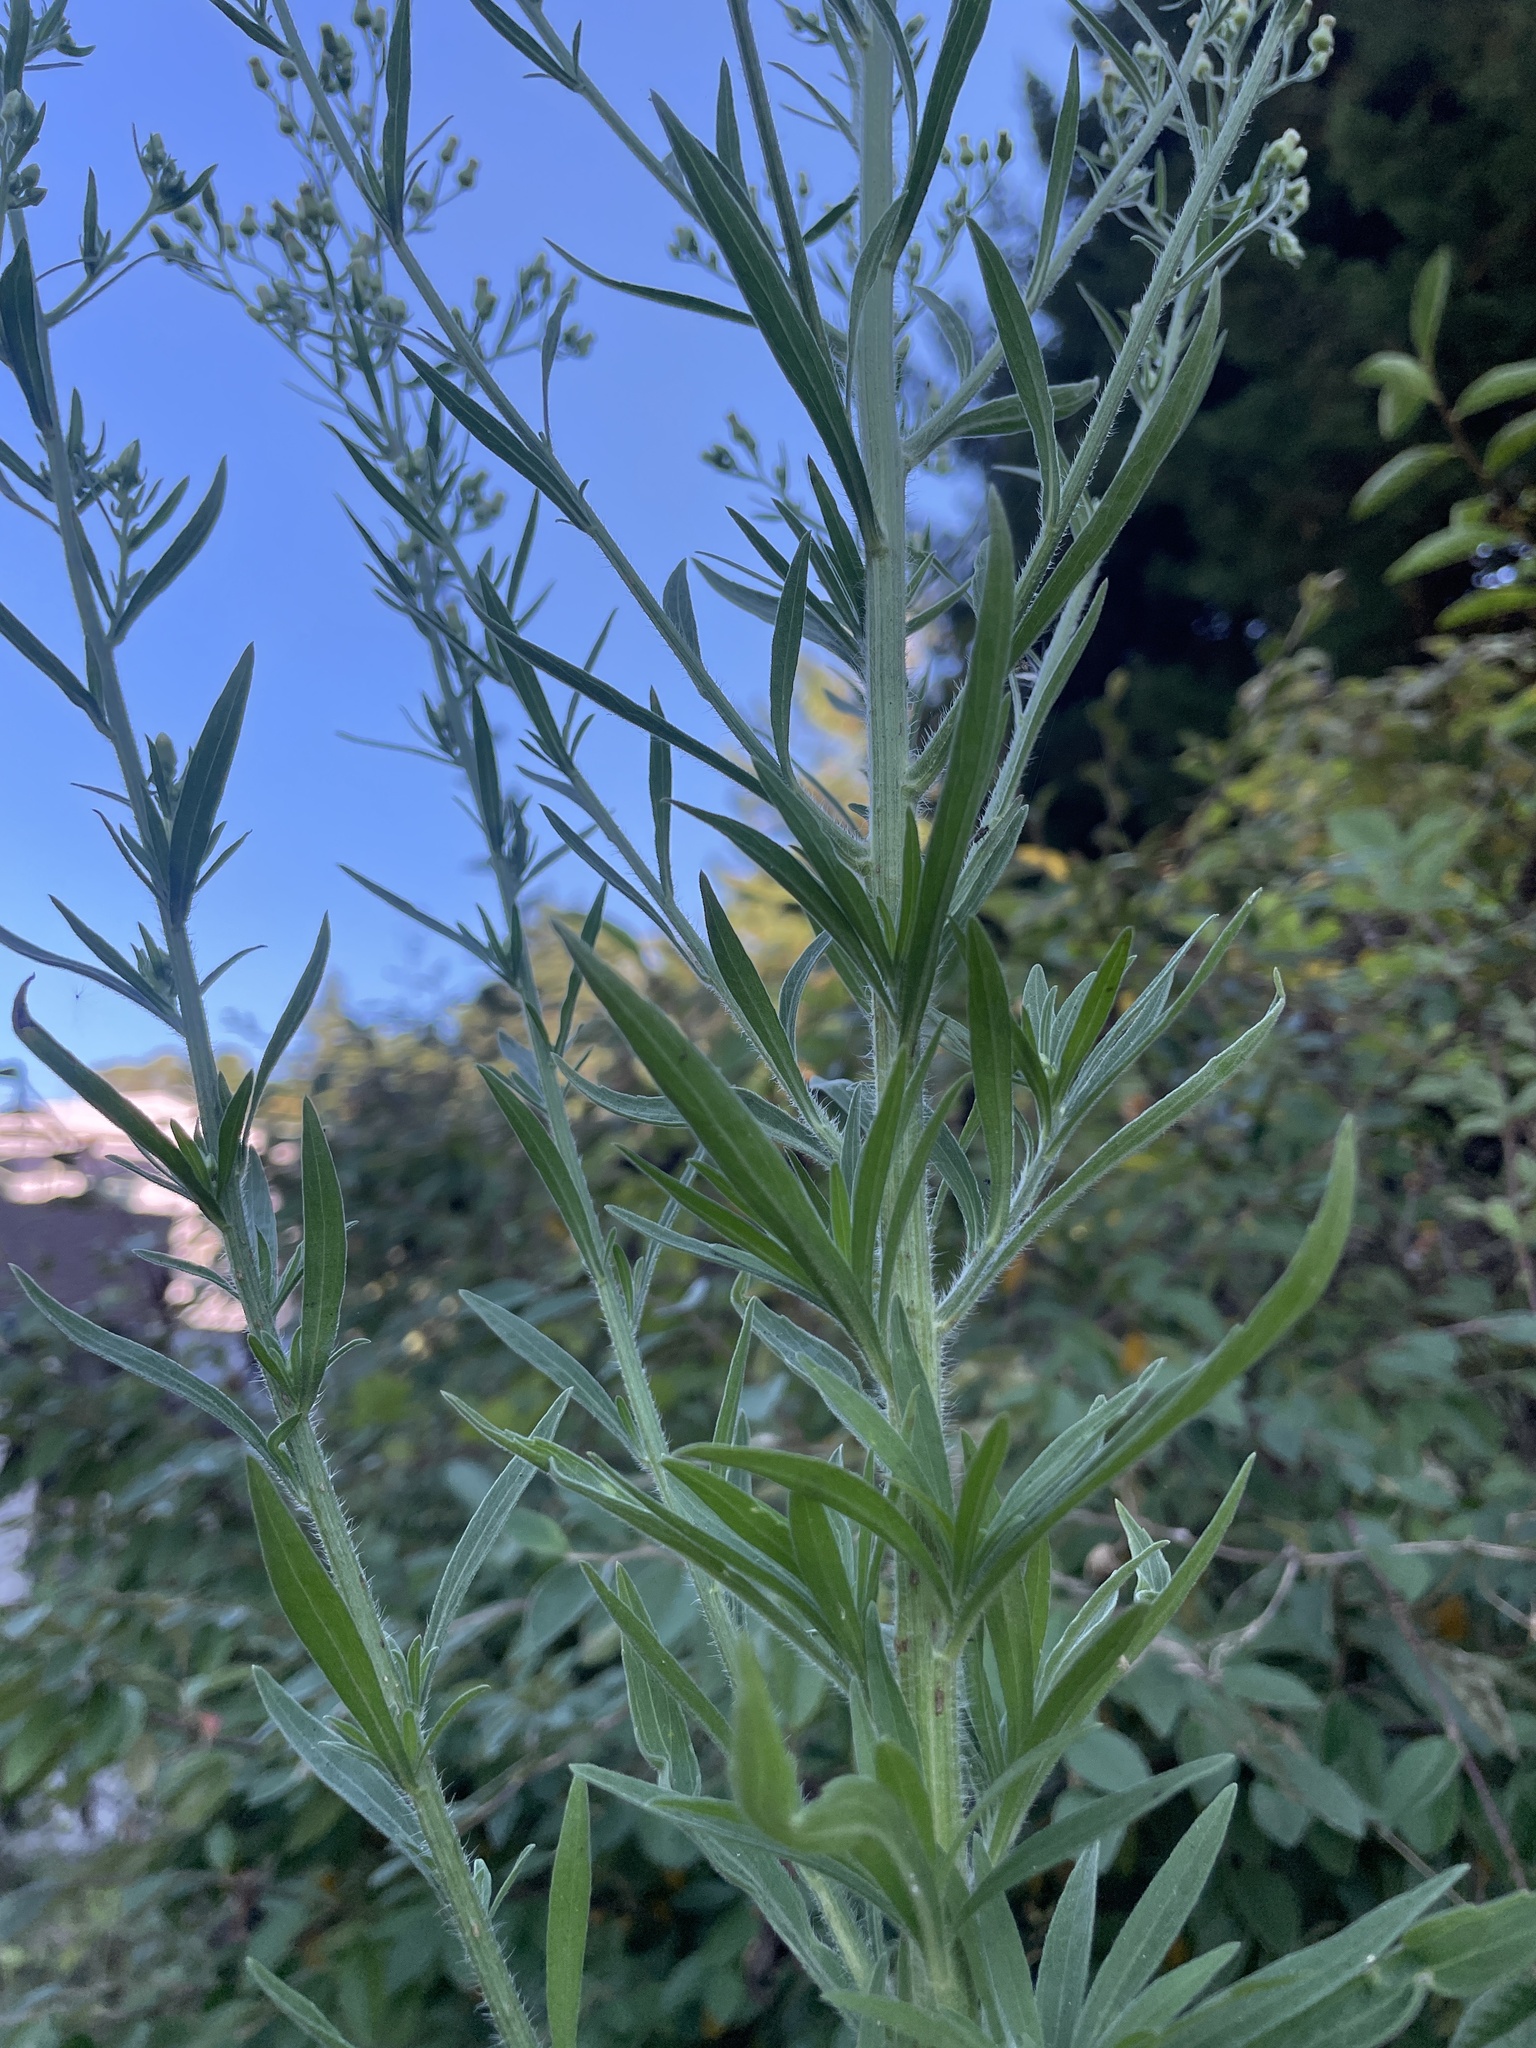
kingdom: Plantae
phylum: Tracheophyta
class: Magnoliopsida
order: Asterales
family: Asteraceae
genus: Erigeron
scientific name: Erigeron sumatrensis
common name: Daisy
